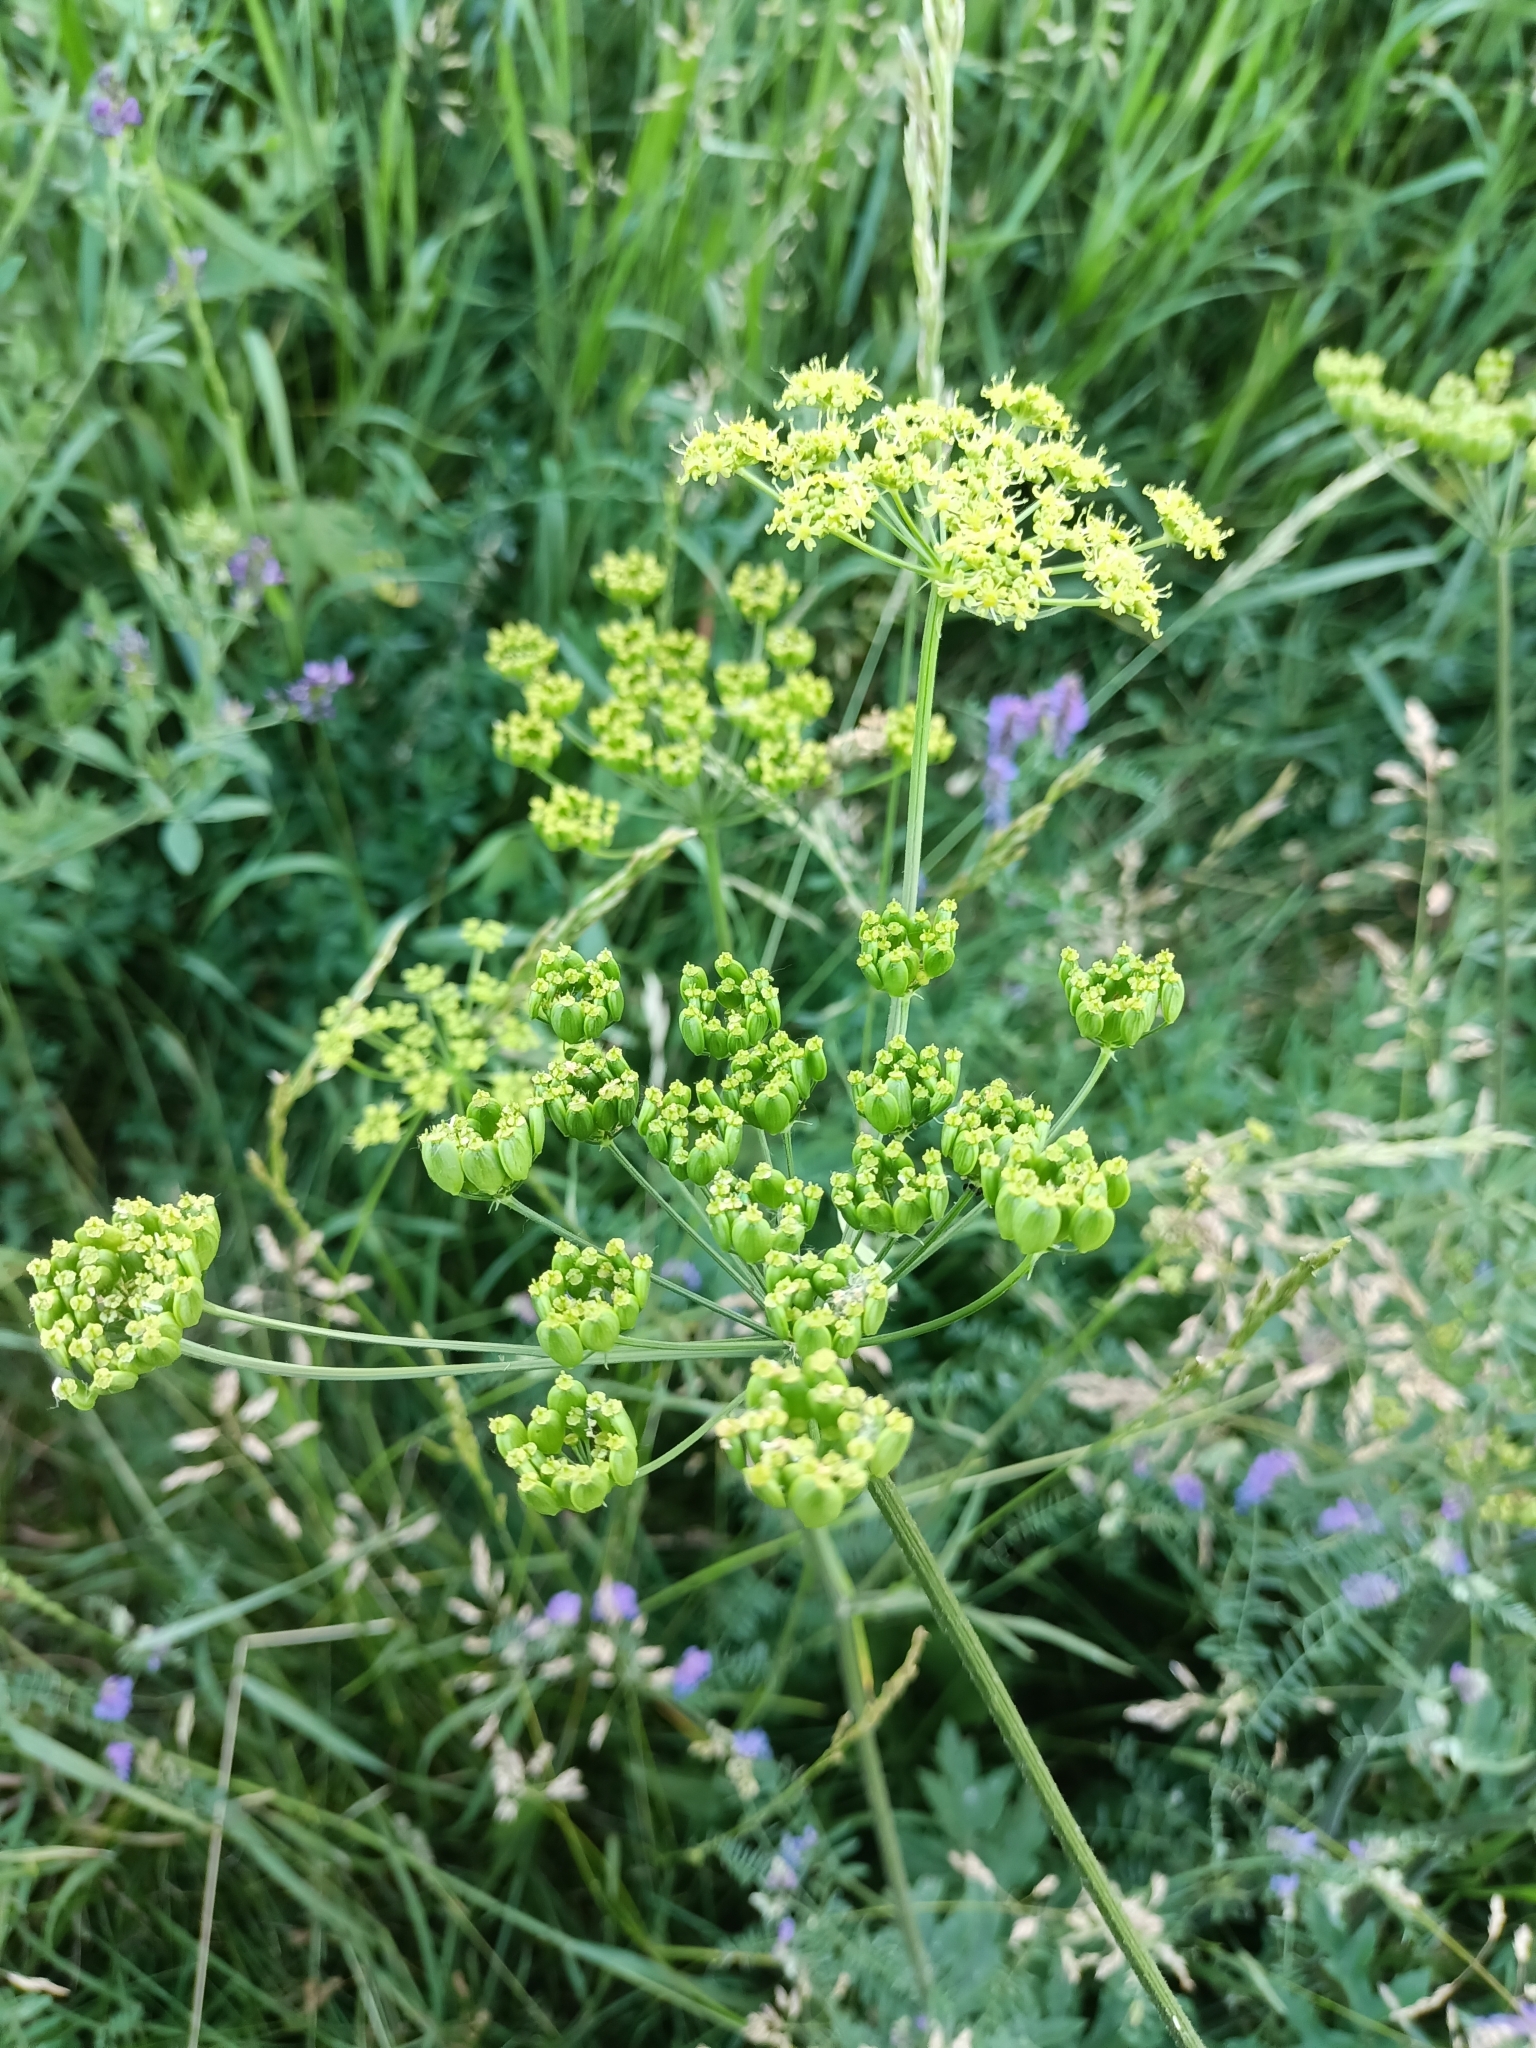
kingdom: Plantae
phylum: Tracheophyta
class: Magnoliopsida
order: Apiales
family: Apiaceae
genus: Pastinaca
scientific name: Pastinaca sativa
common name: Wild parsnip
